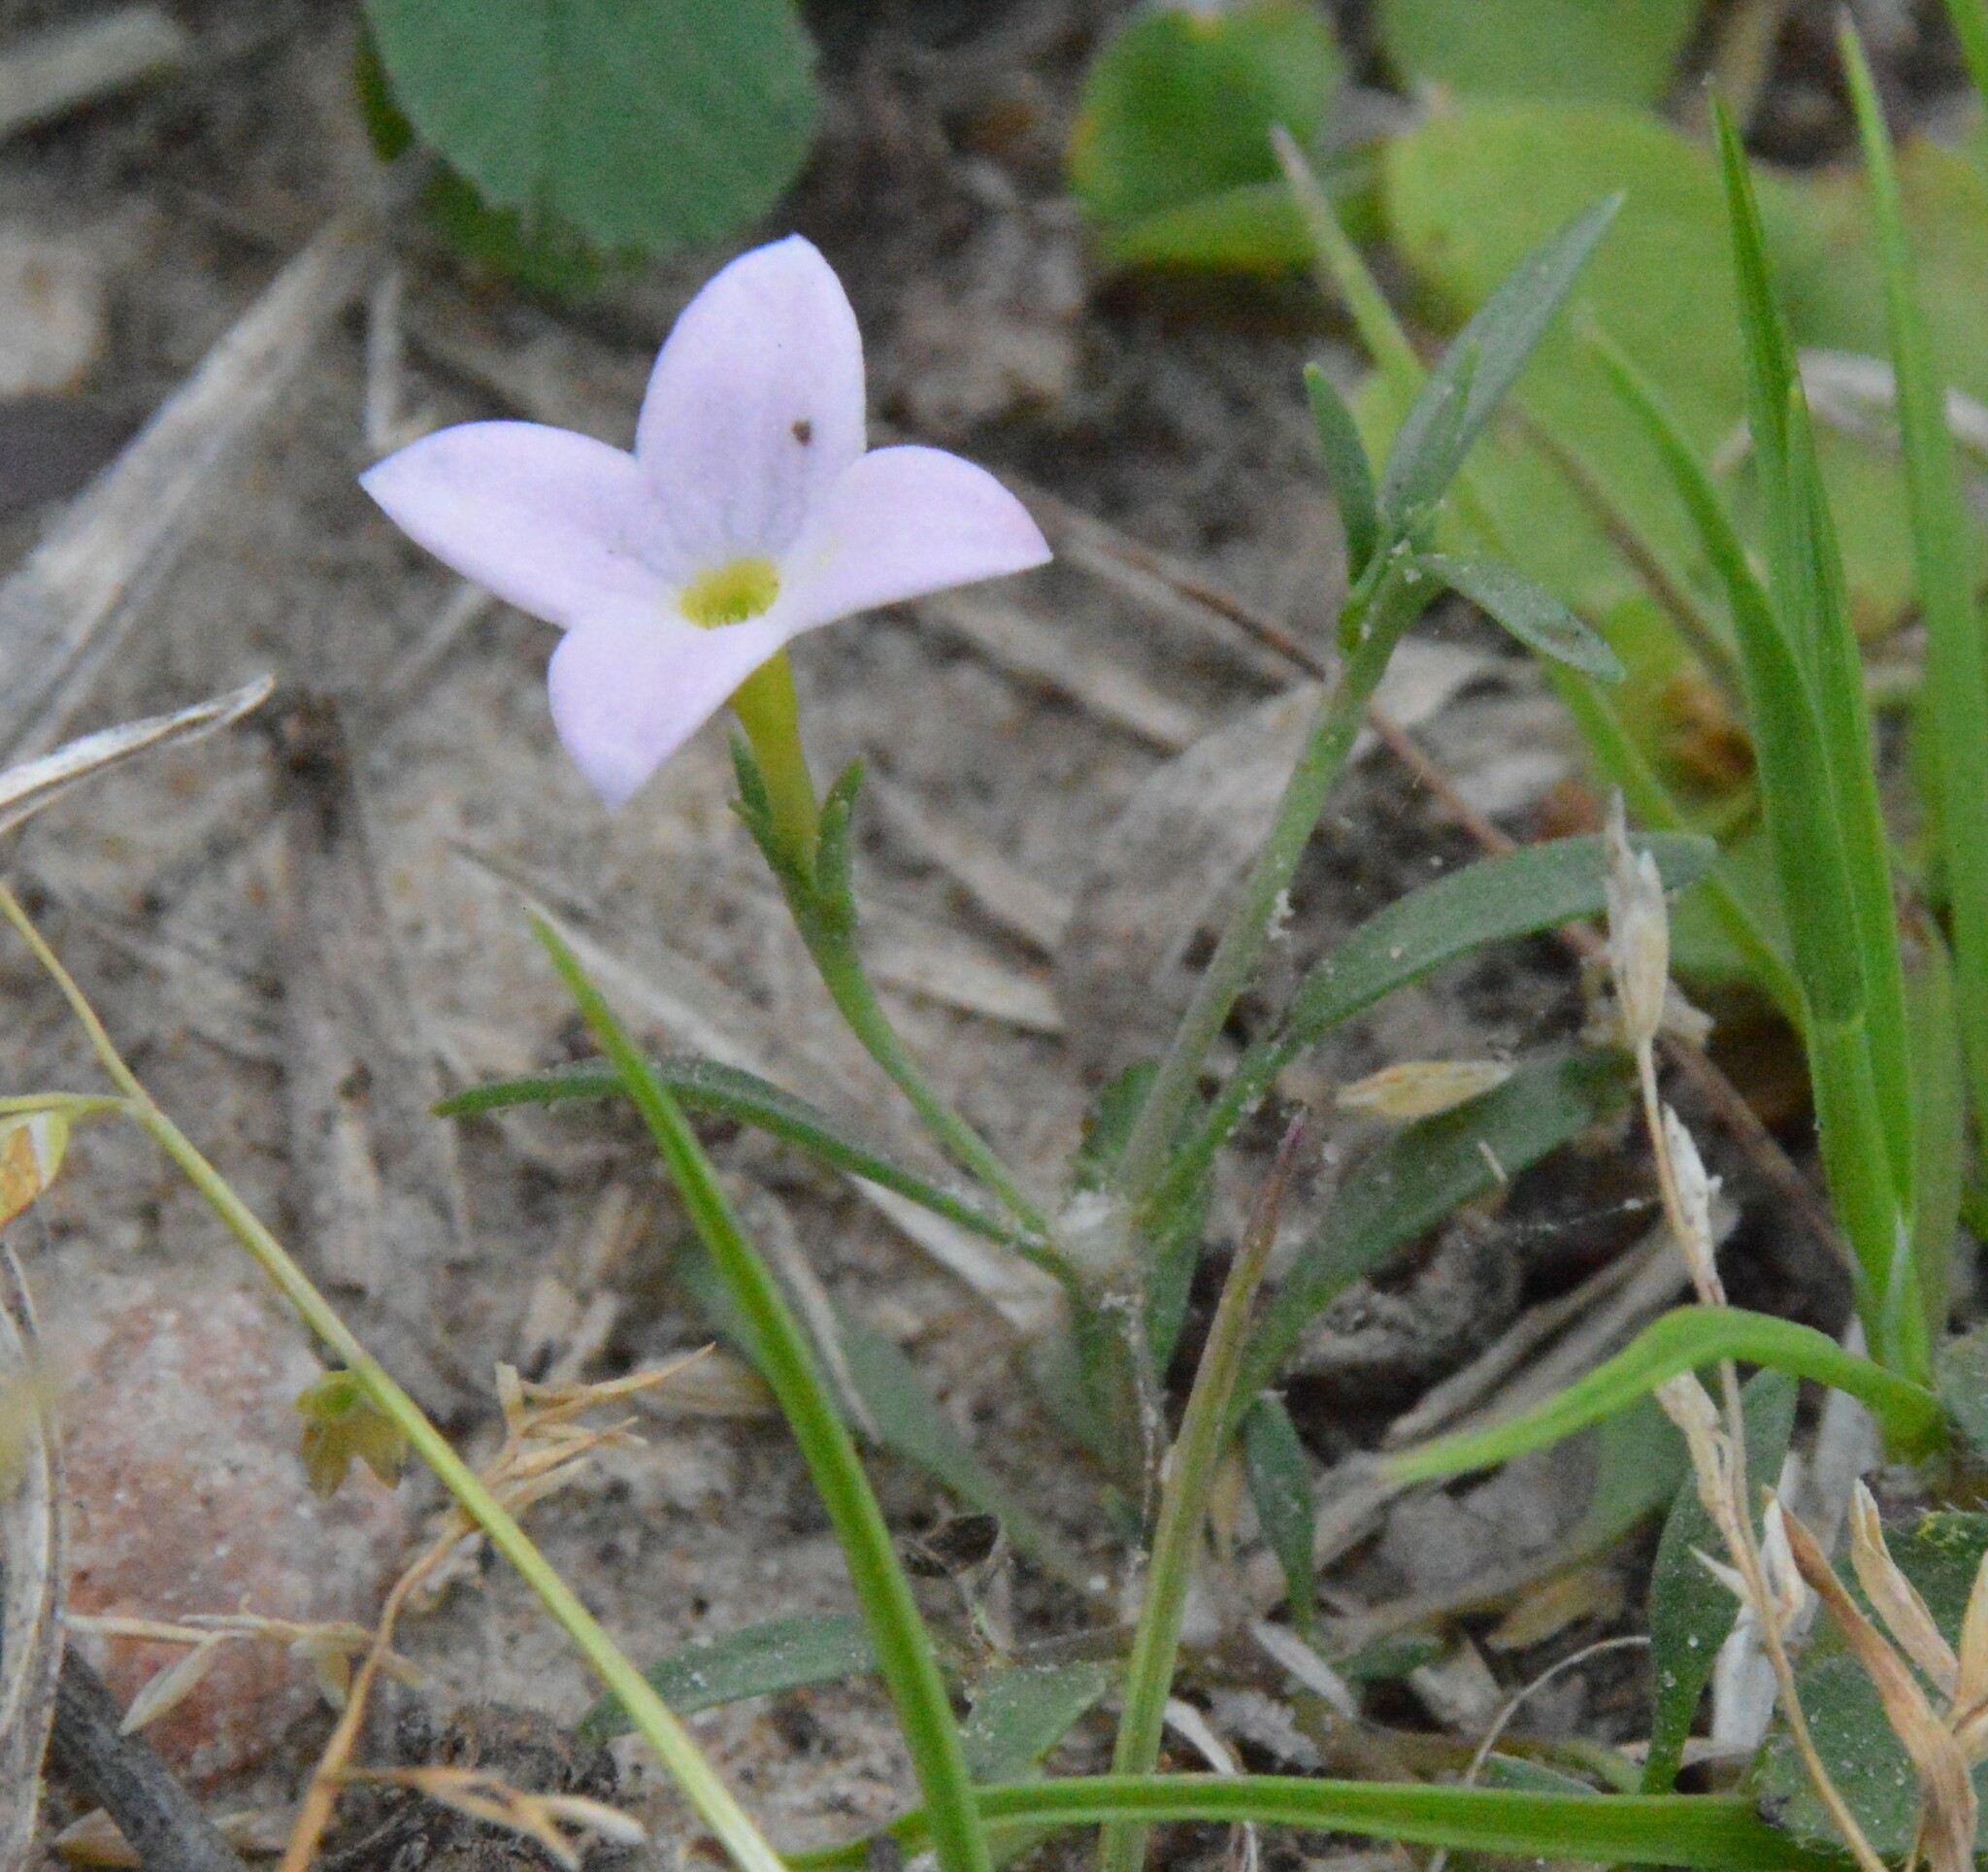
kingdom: Plantae
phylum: Tracheophyta
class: Magnoliopsida
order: Gentianales
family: Rubiaceae
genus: Houstonia
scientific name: Houstonia rosea
